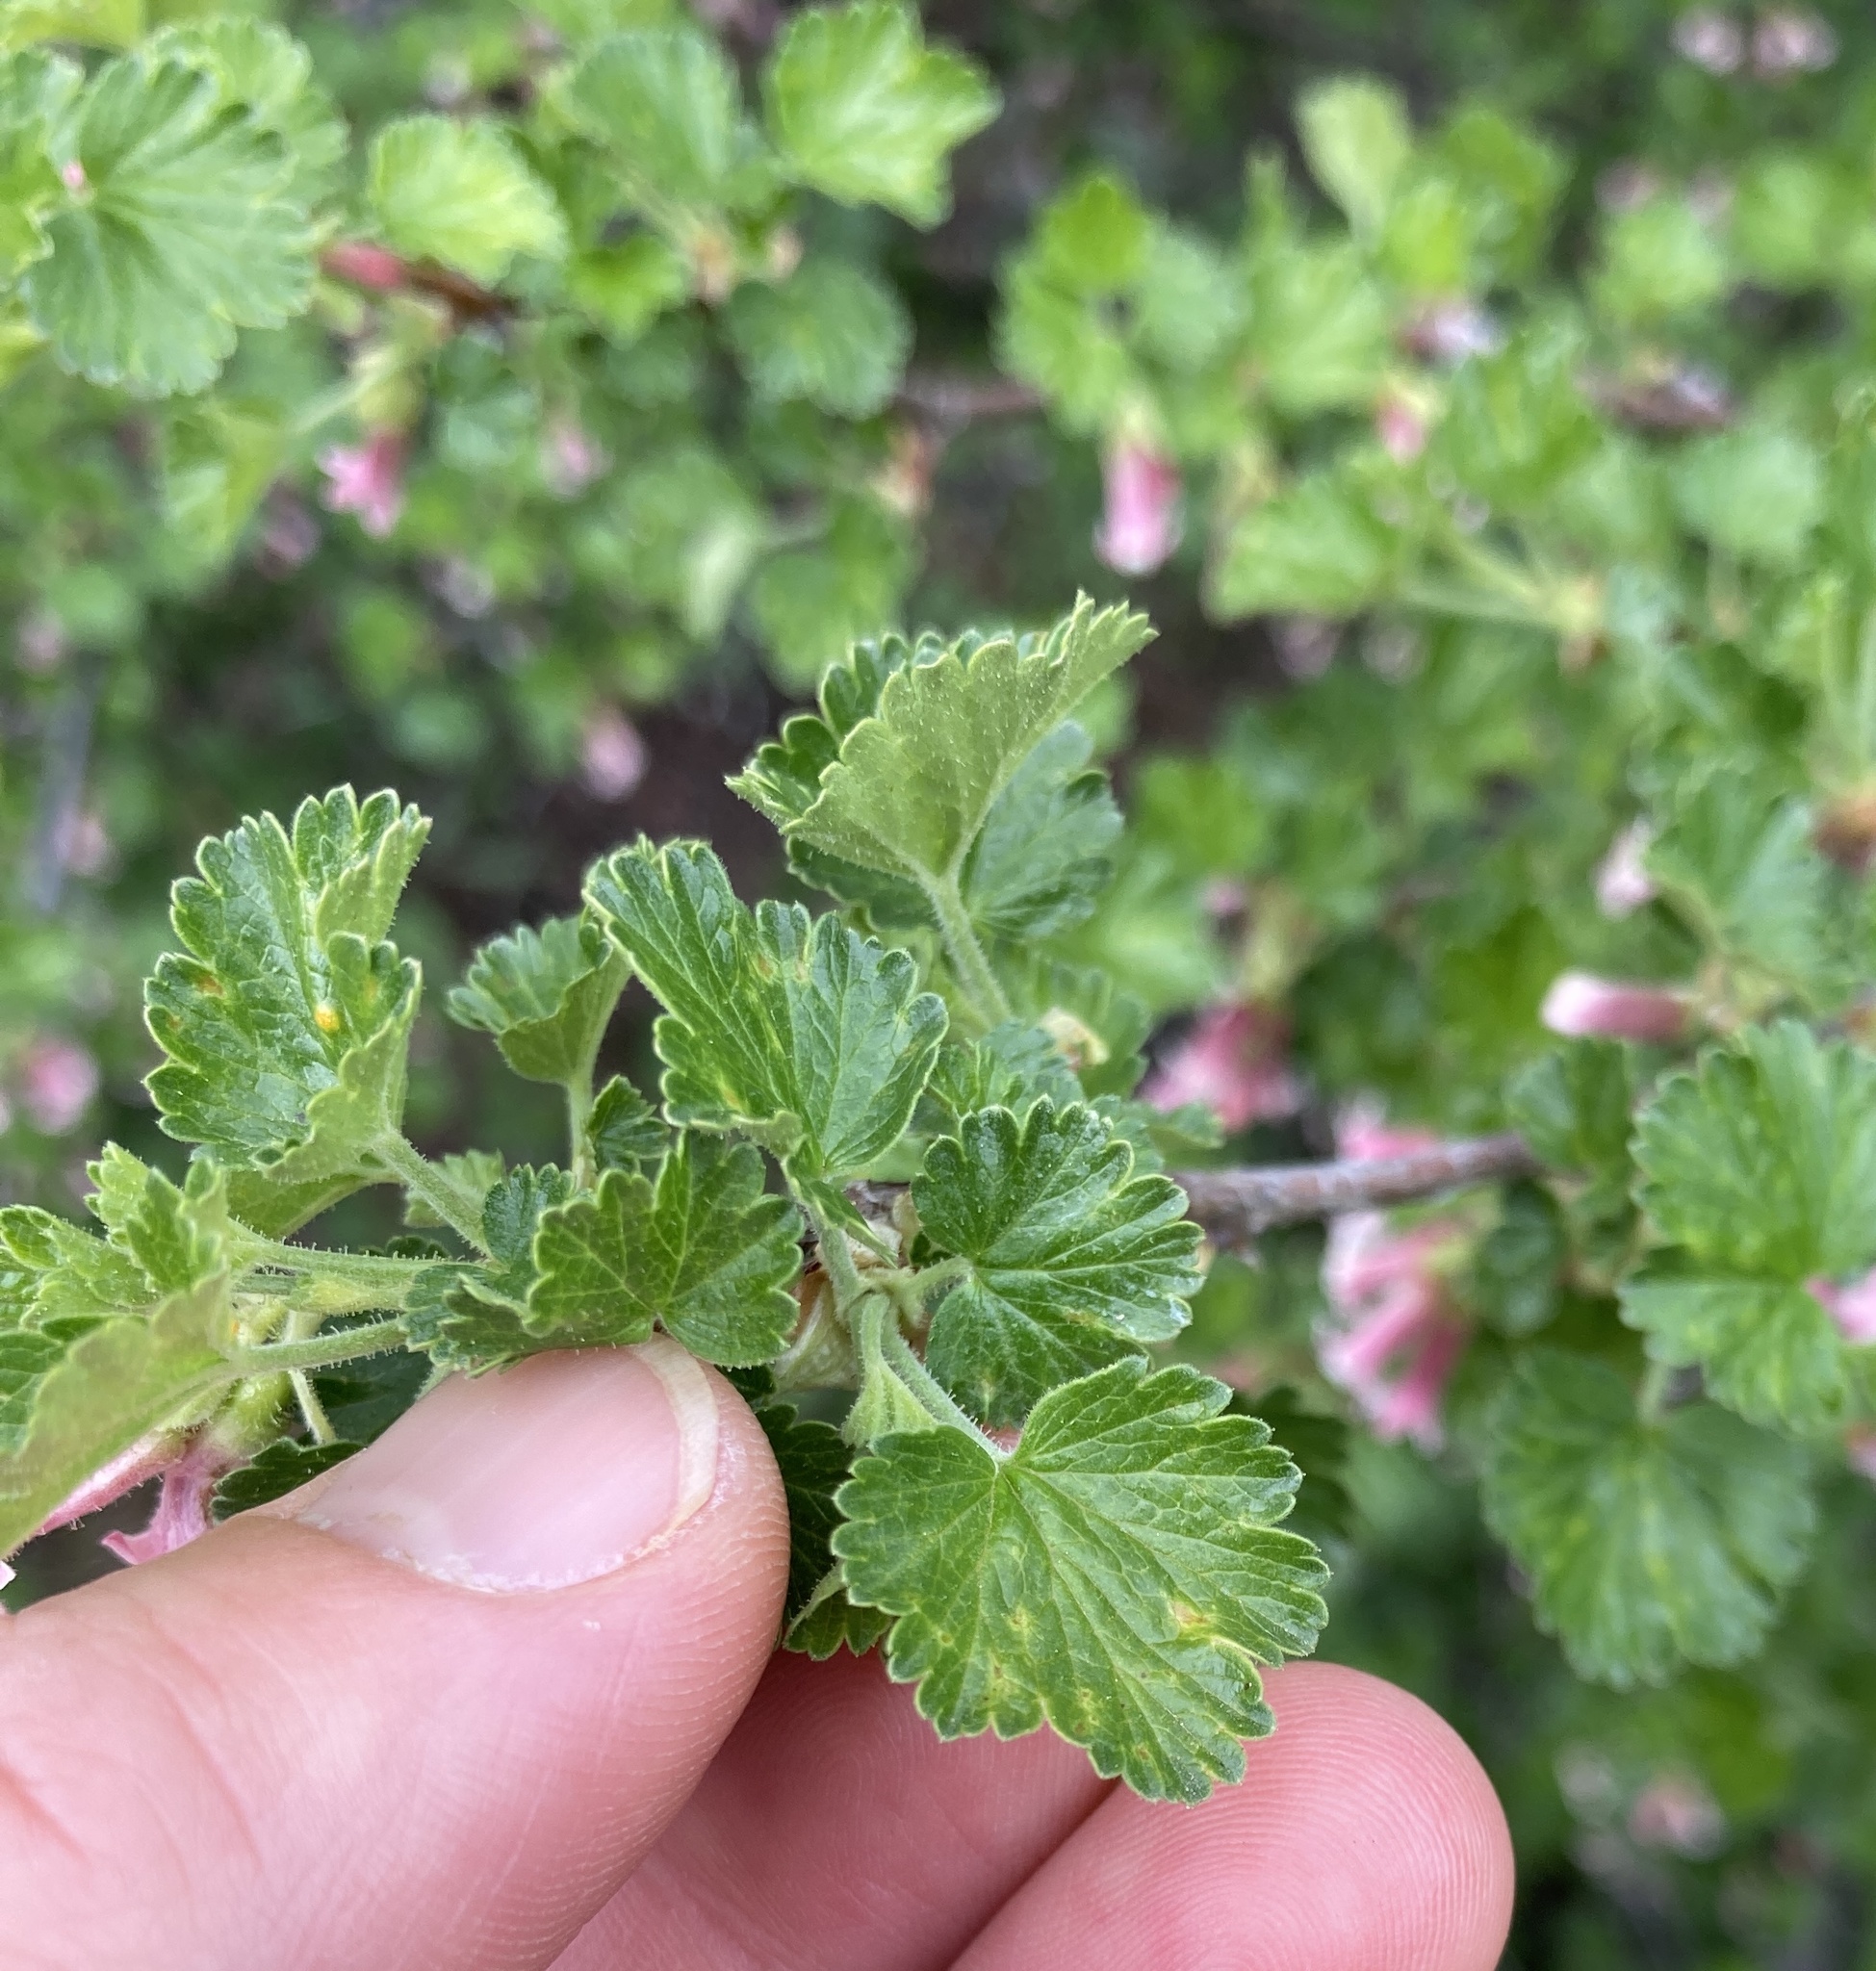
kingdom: Plantae
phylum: Tracheophyta
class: Magnoliopsida
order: Saxifragales
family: Grossulariaceae
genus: Ribes
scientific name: Ribes cereum
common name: Wax currant
